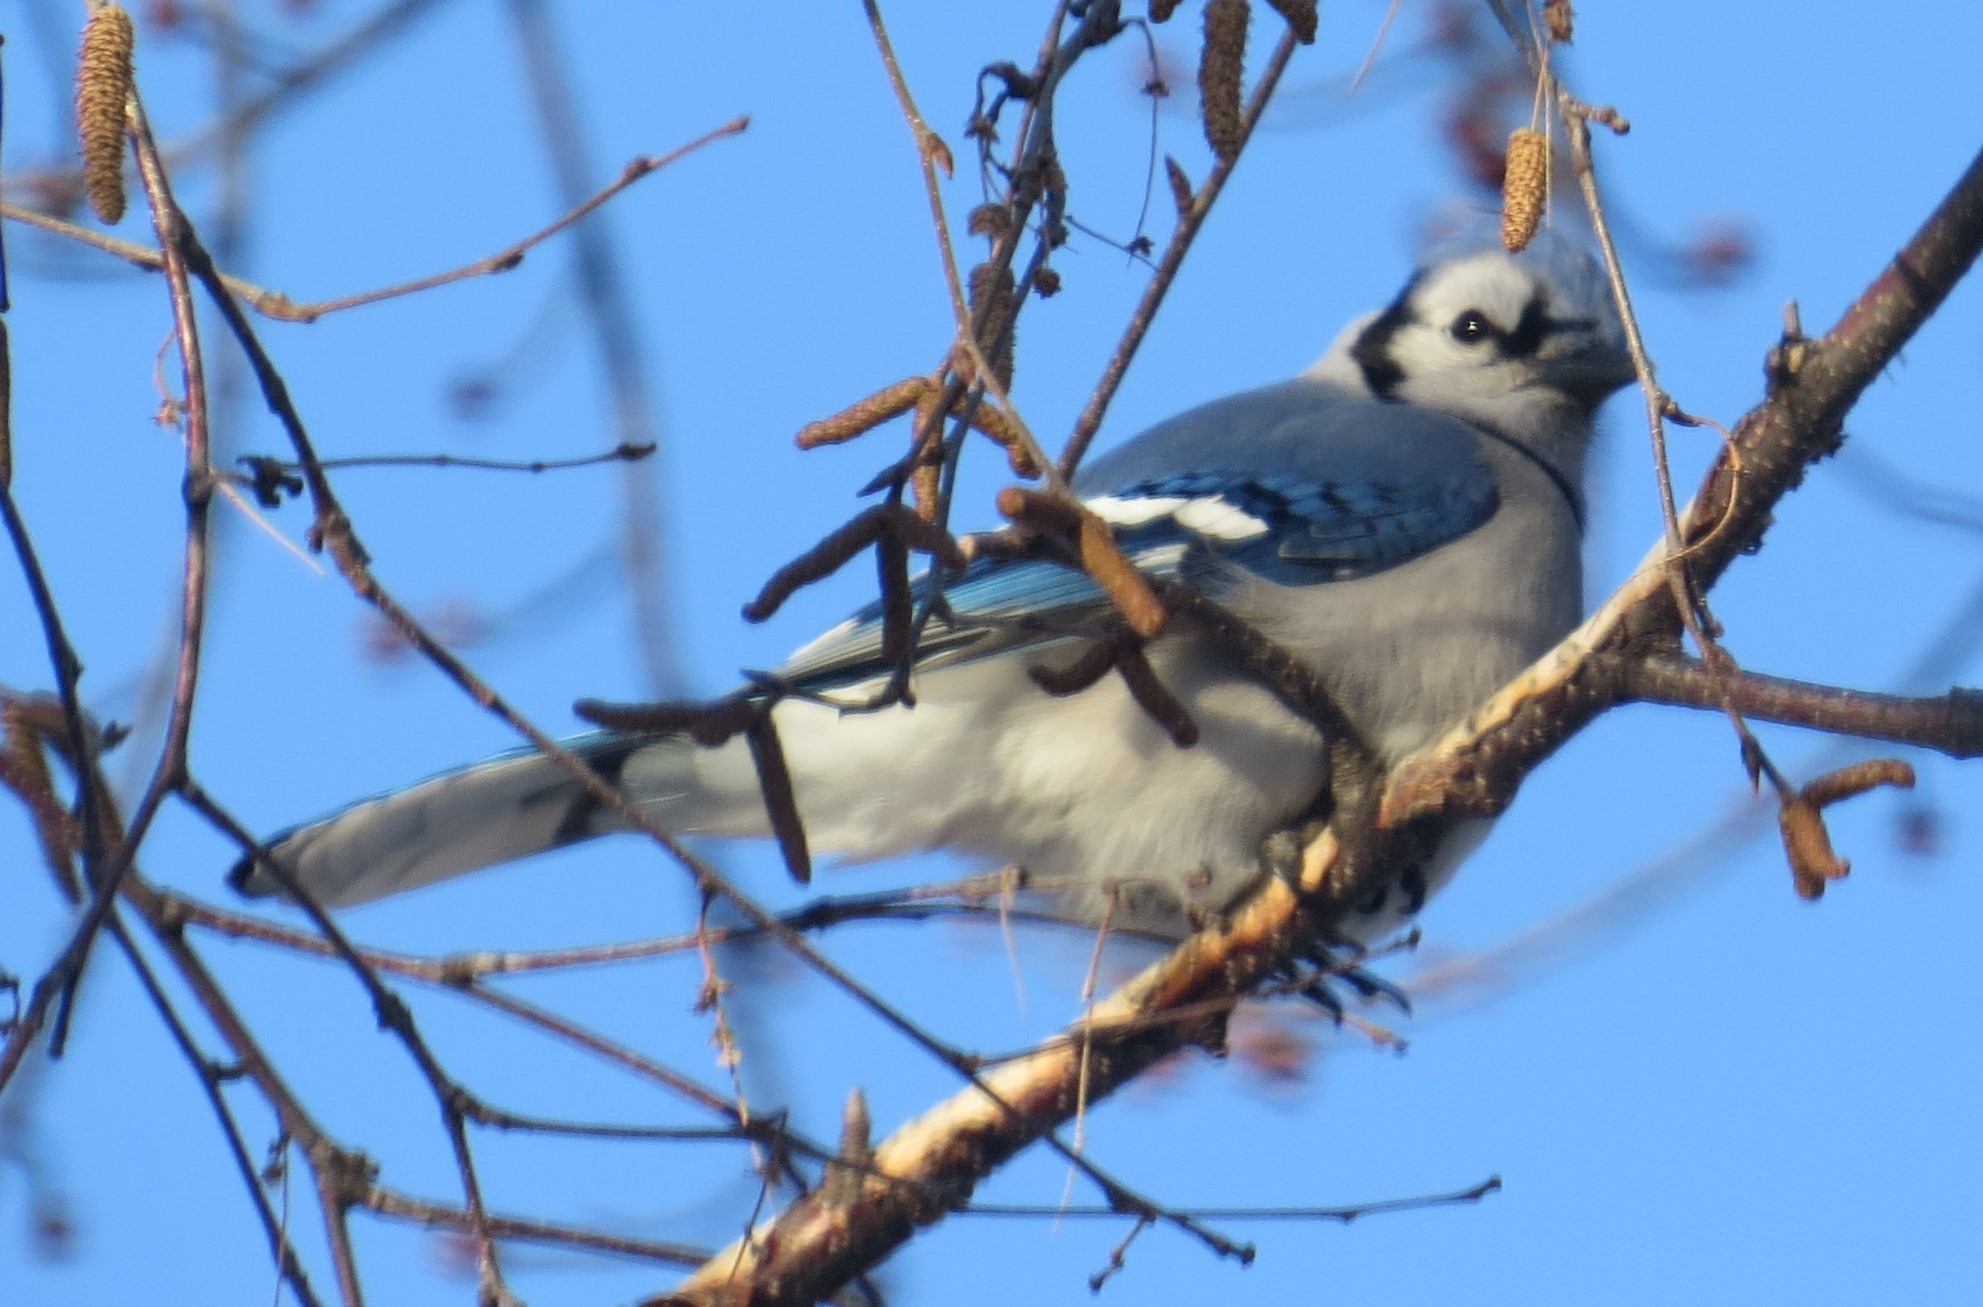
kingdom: Animalia
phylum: Chordata
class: Aves
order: Passeriformes
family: Corvidae
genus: Cyanocitta
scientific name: Cyanocitta cristata
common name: Blue jay
